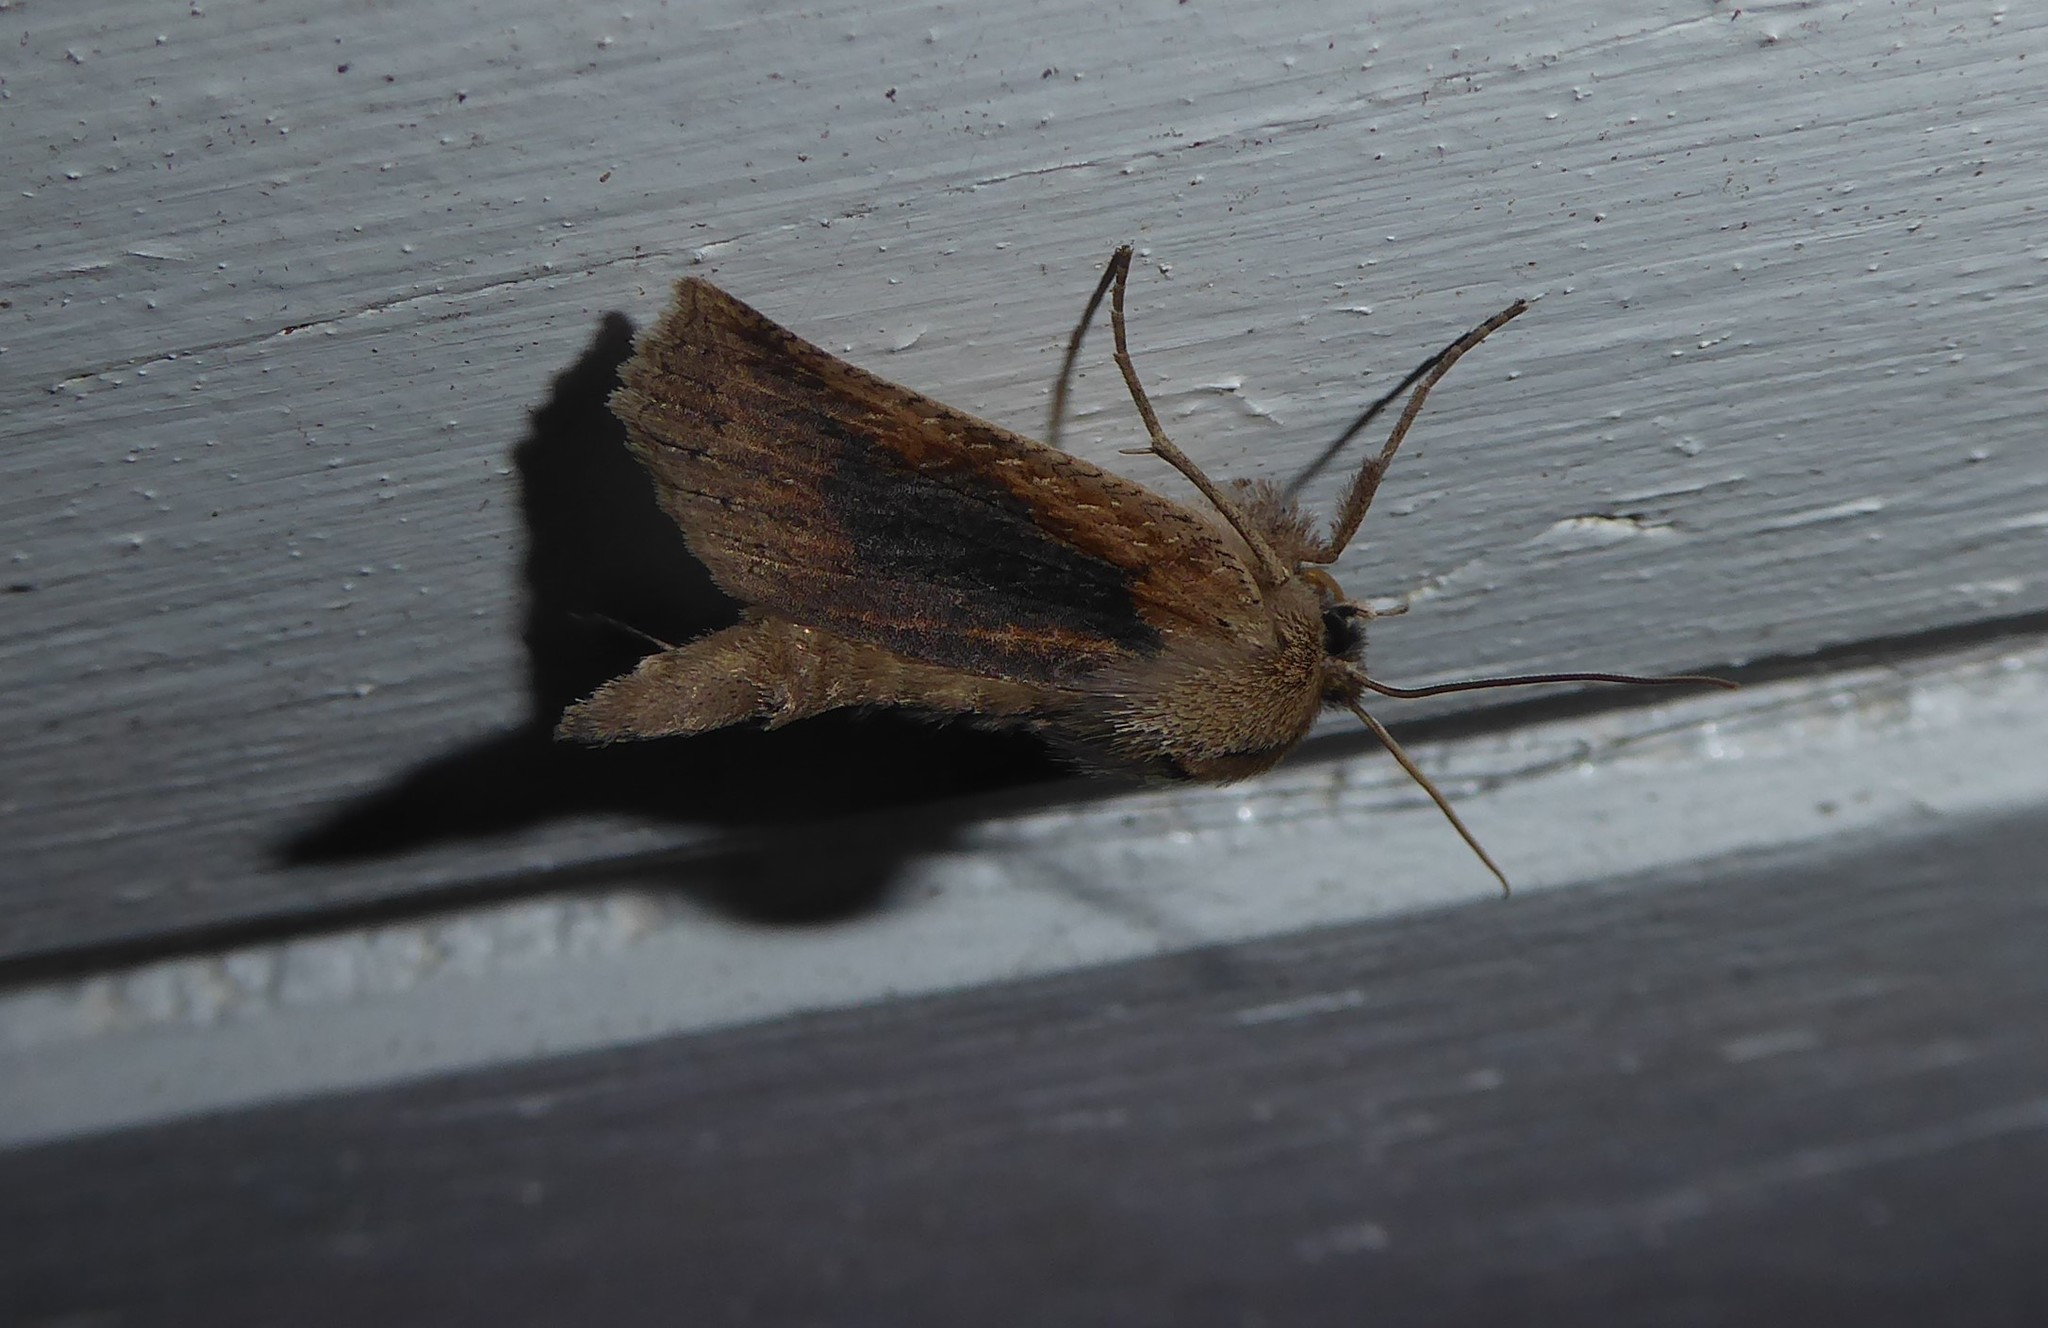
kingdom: Animalia
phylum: Arthropoda
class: Insecta
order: Lepidoptera
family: Geometridae
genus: Declana
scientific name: Declana leptomera
